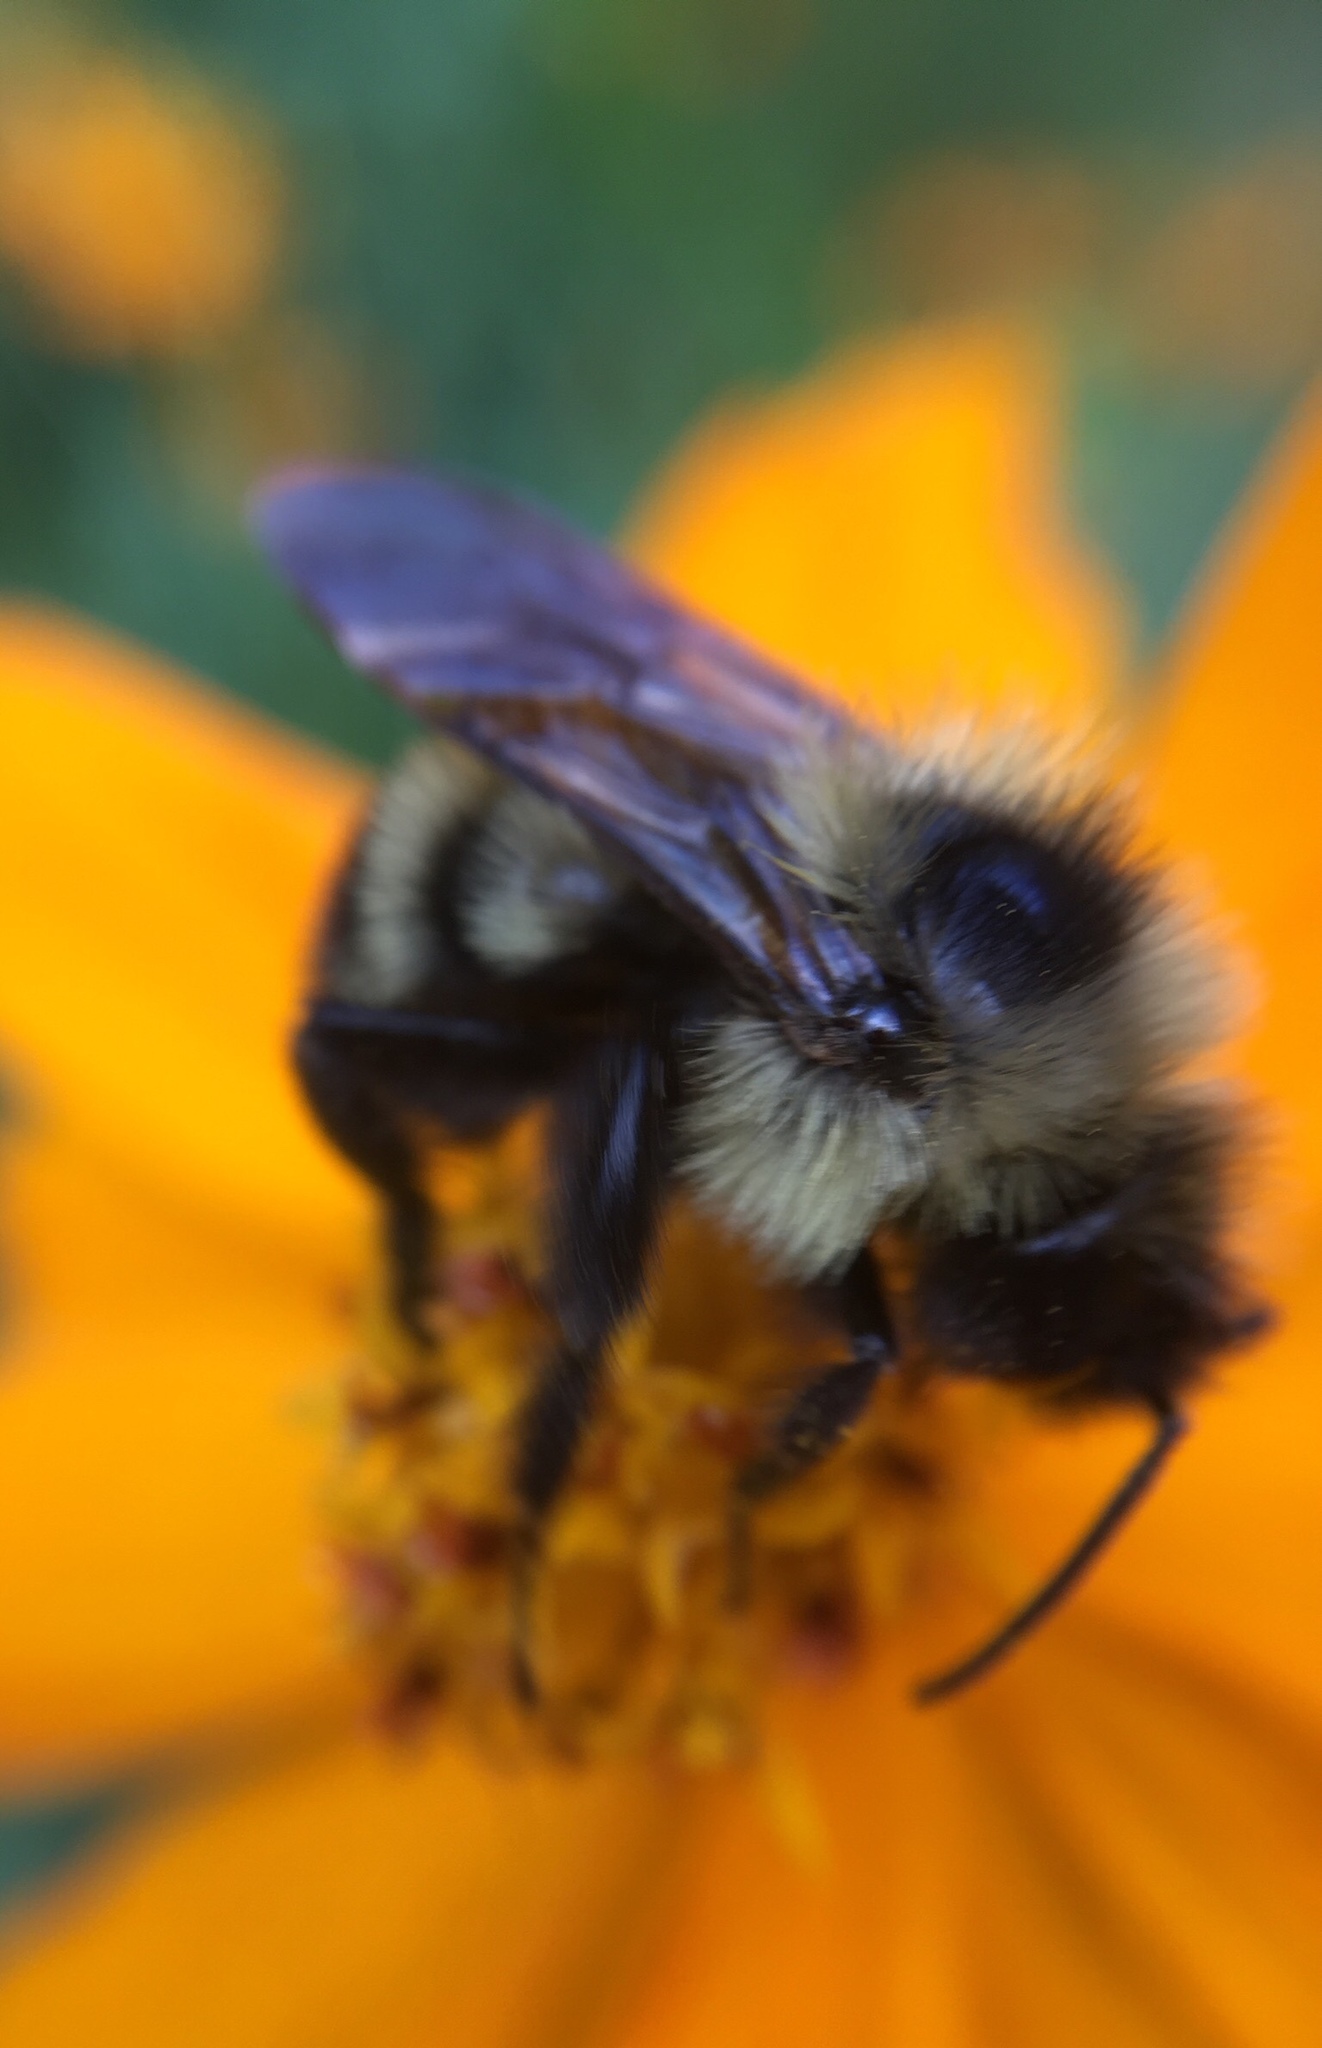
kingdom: Animalia
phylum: Arthropoda
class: Insecta
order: Hymenoptera
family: Apidae
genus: Bombus
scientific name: Bombus citrinus
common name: Lemon cuckoo bumble bee
